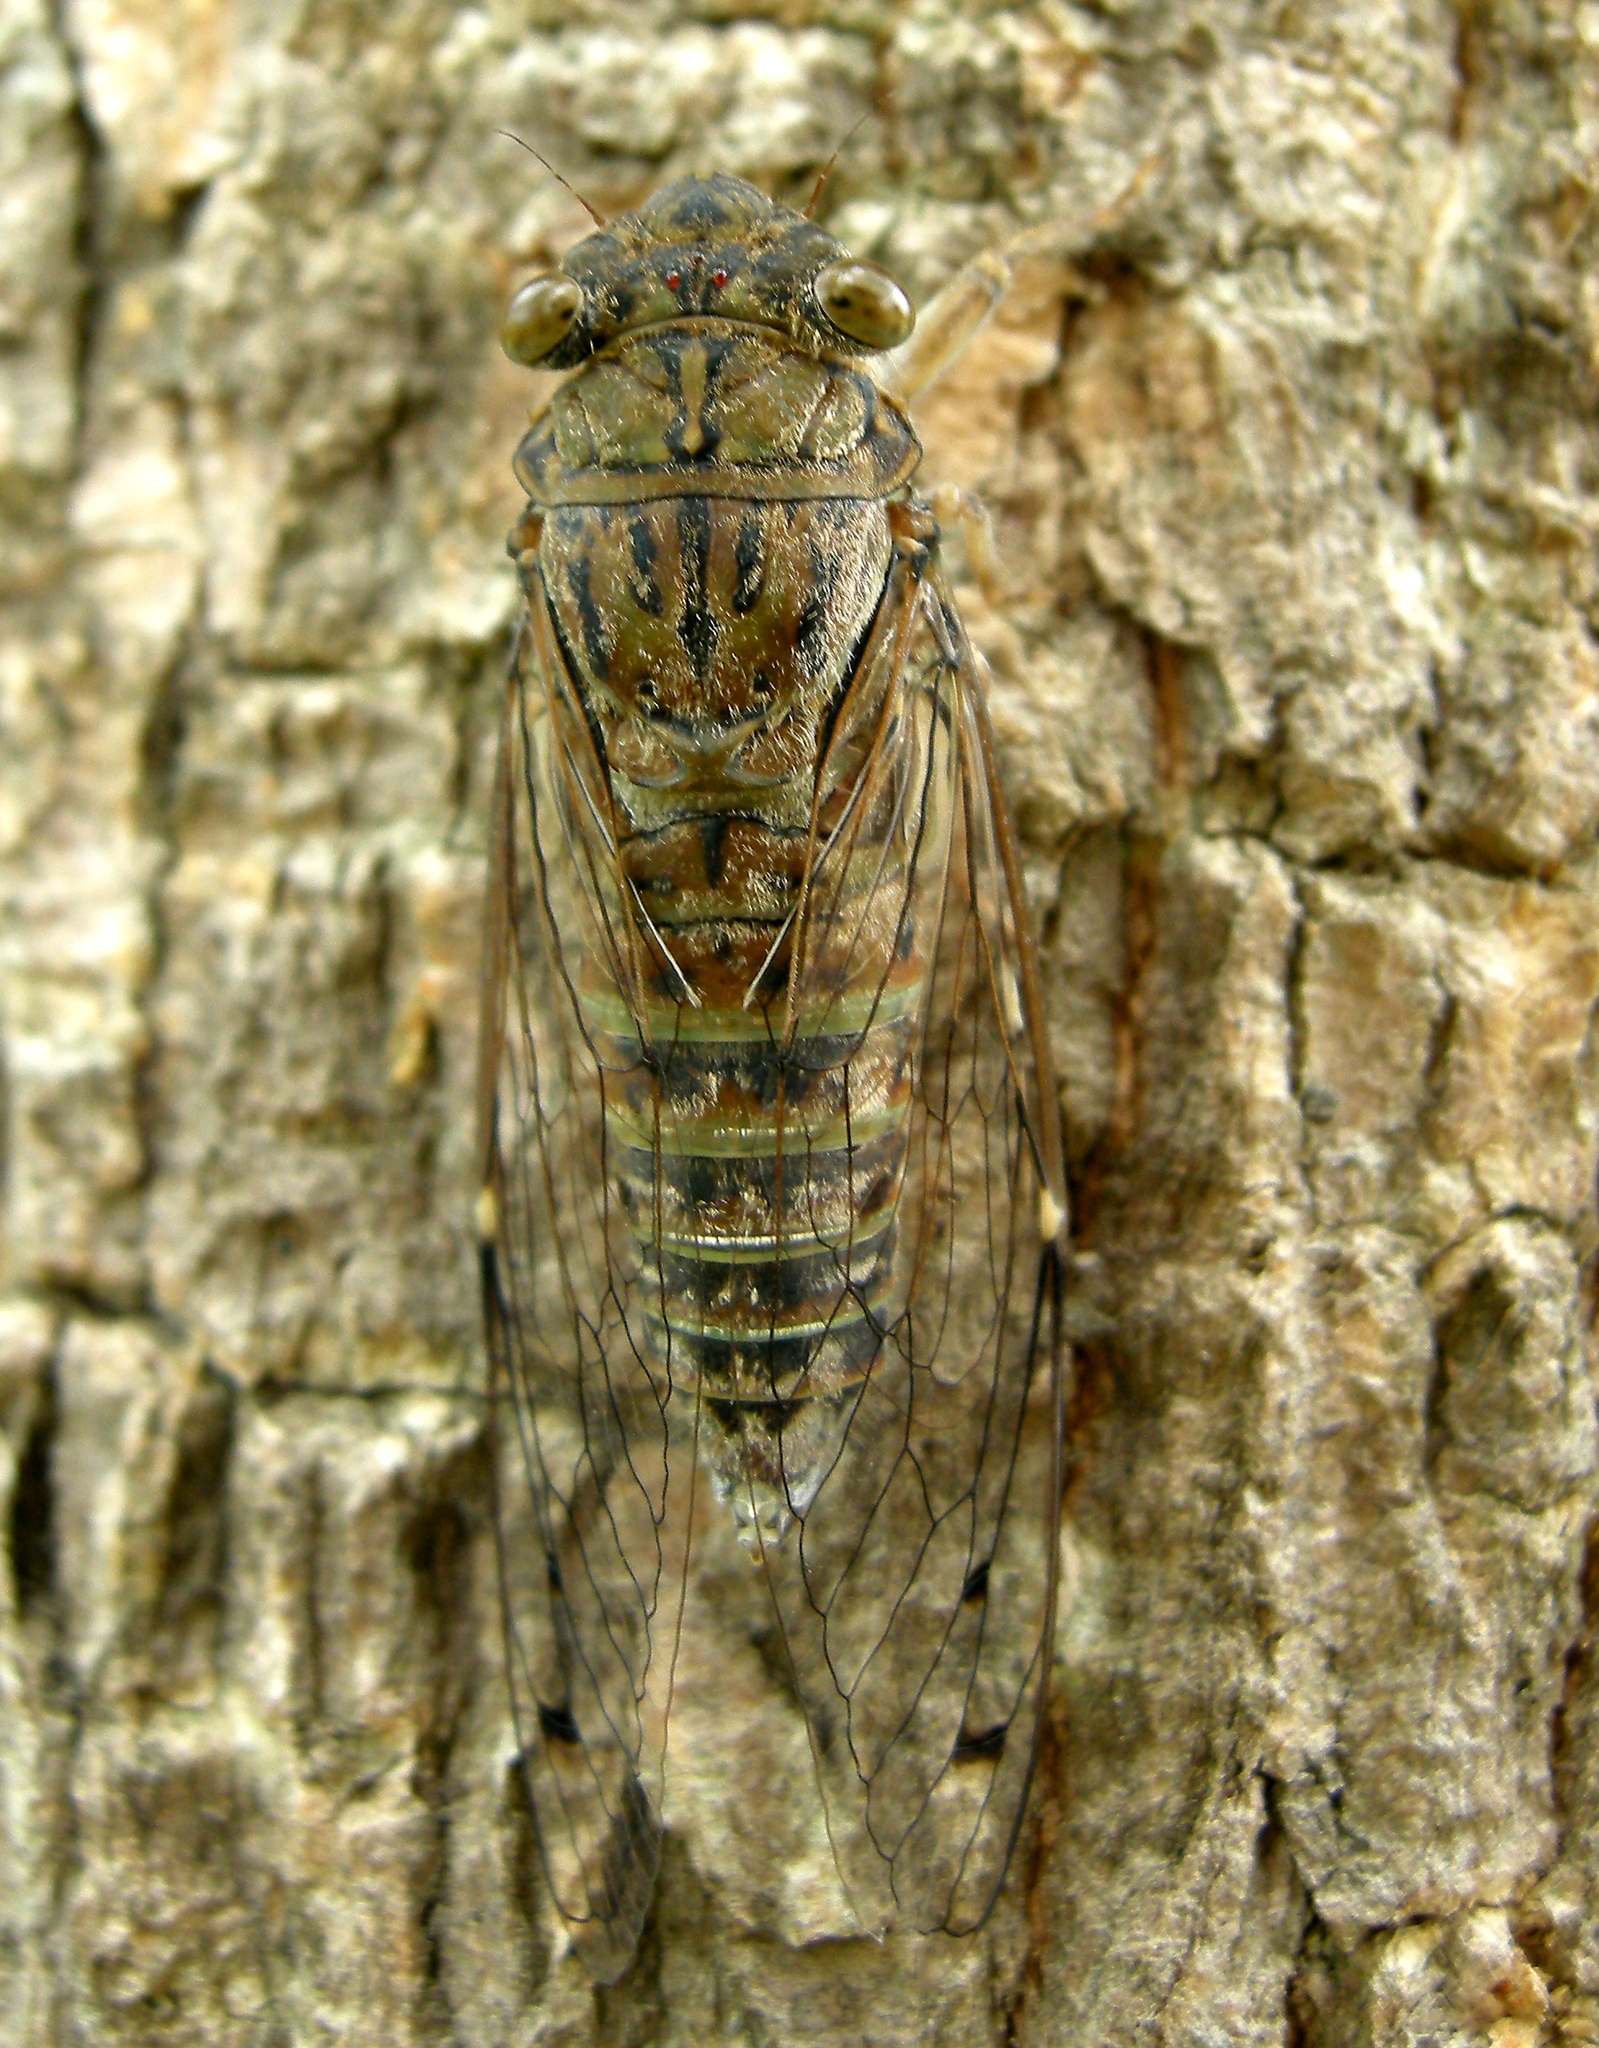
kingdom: Animalia
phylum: Arthropoda
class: Insecta
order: Hemiptera
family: Cicadidae
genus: Kaphsa
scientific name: Kaphsa concordia
